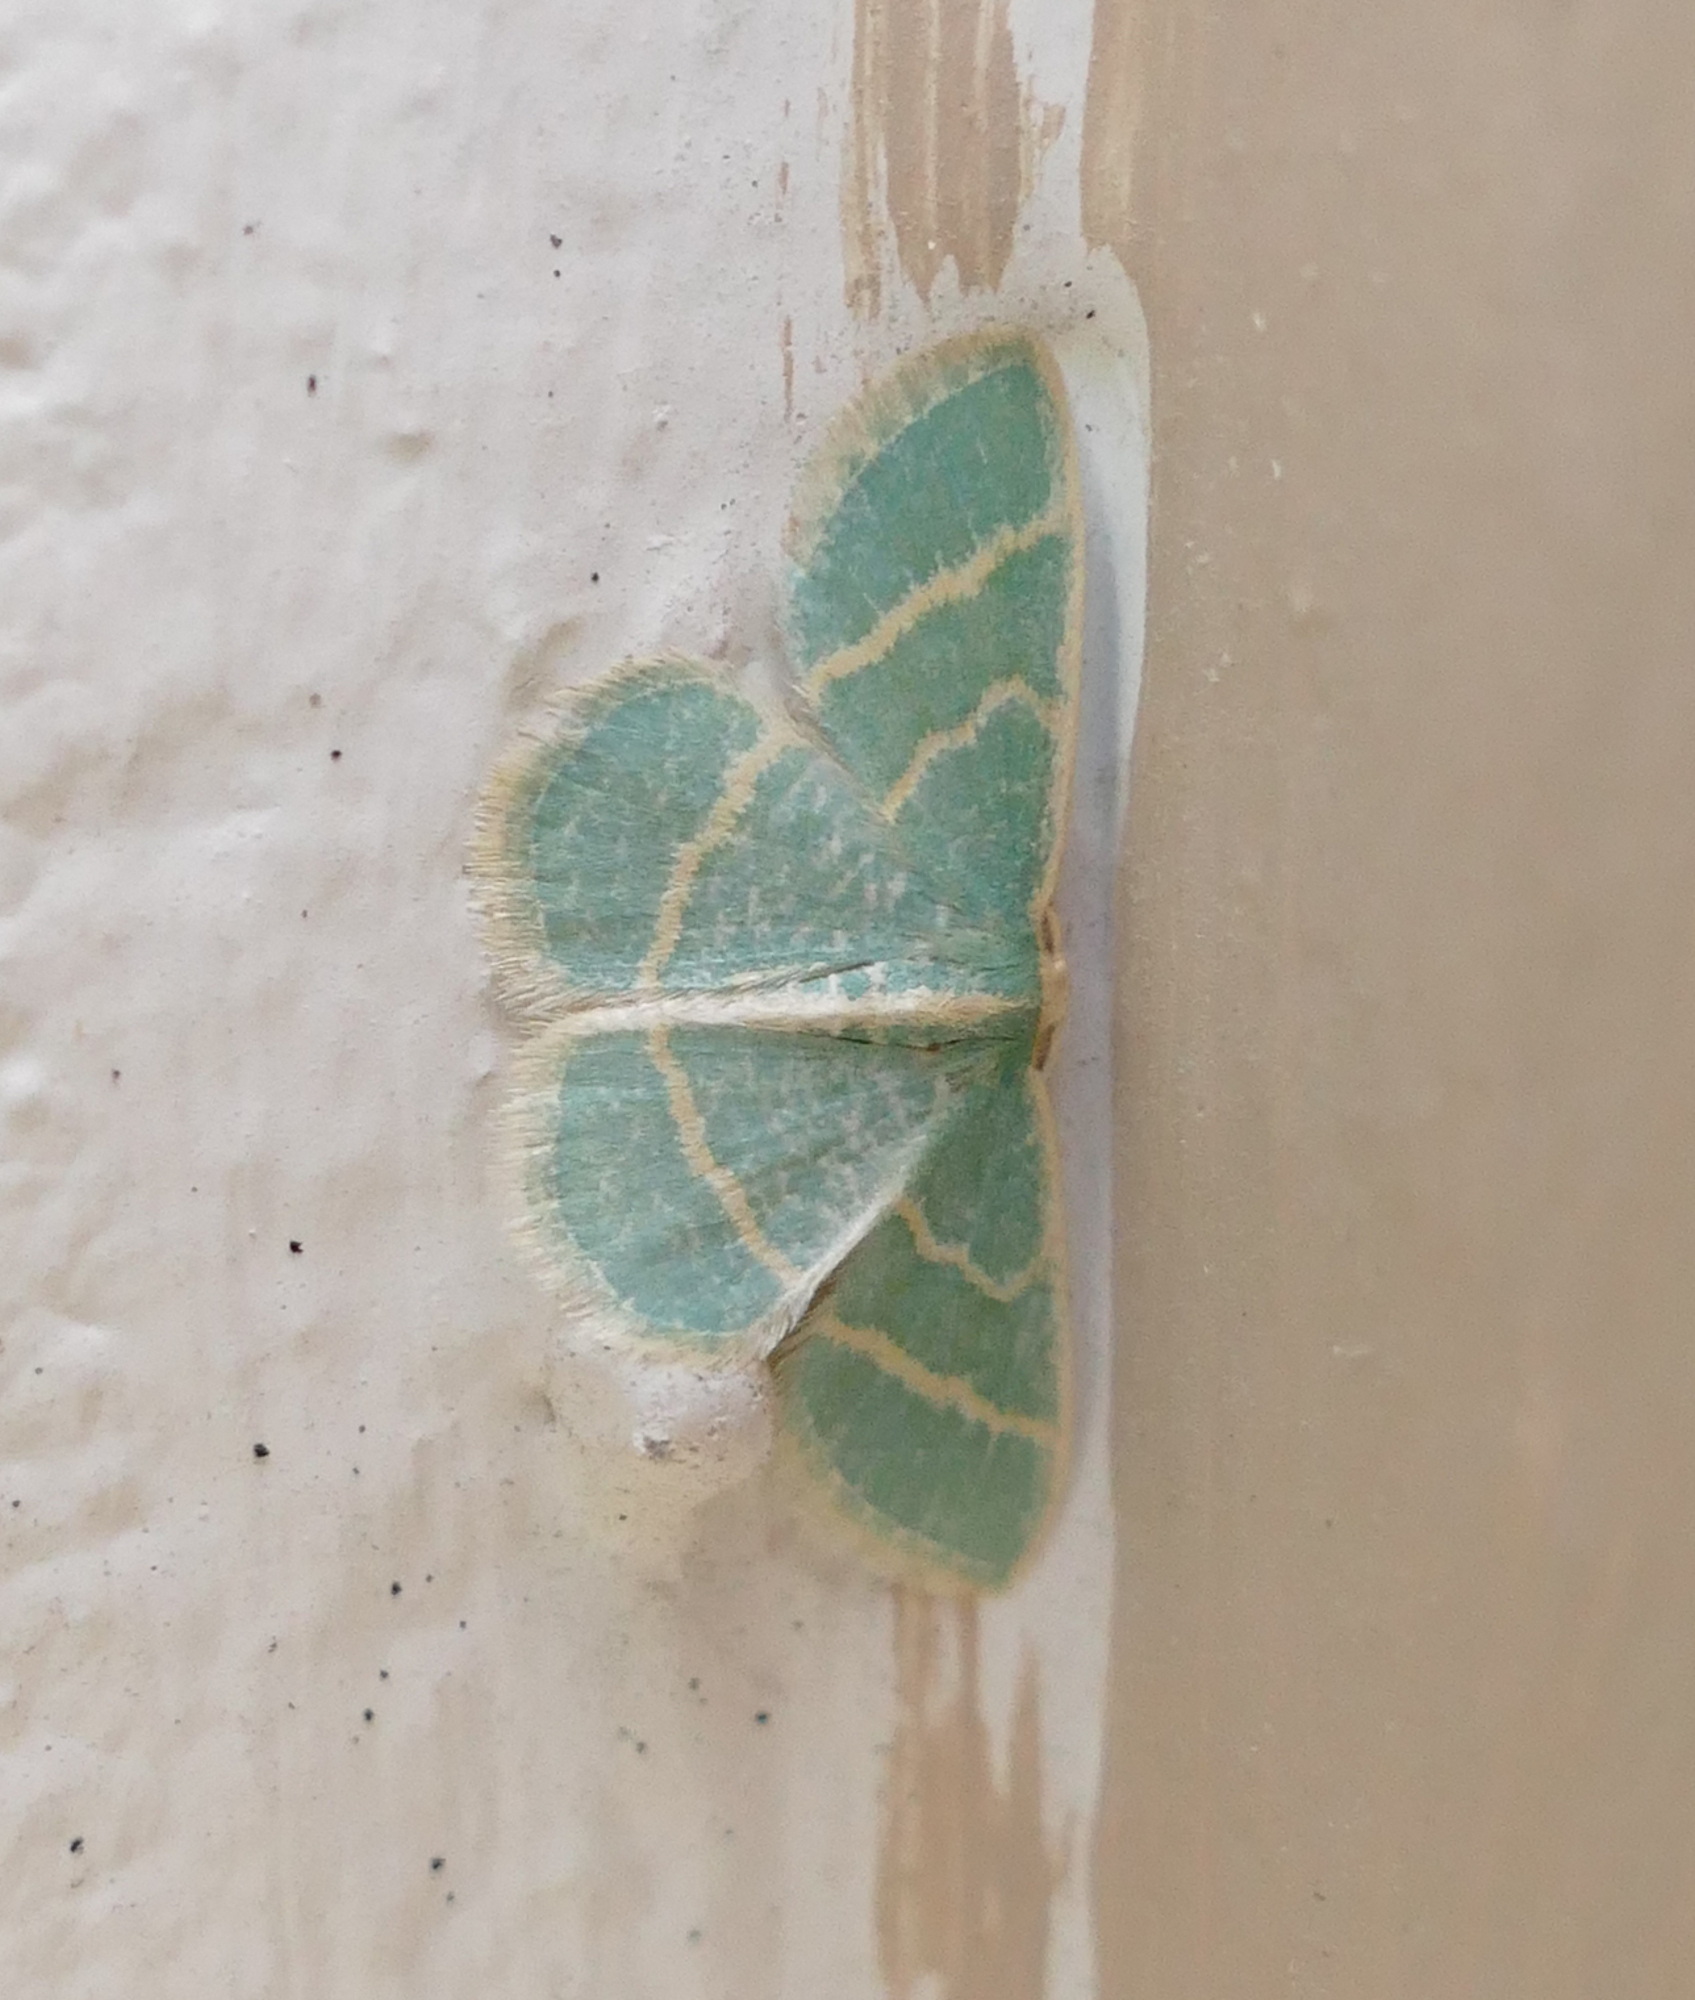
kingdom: Animalia
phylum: Arthropoda
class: Insecta
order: Lepidoptera
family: Geometridae
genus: Chlorochlamys
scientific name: Chlorochlamys chloroleucaria
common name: Blackberry looper
